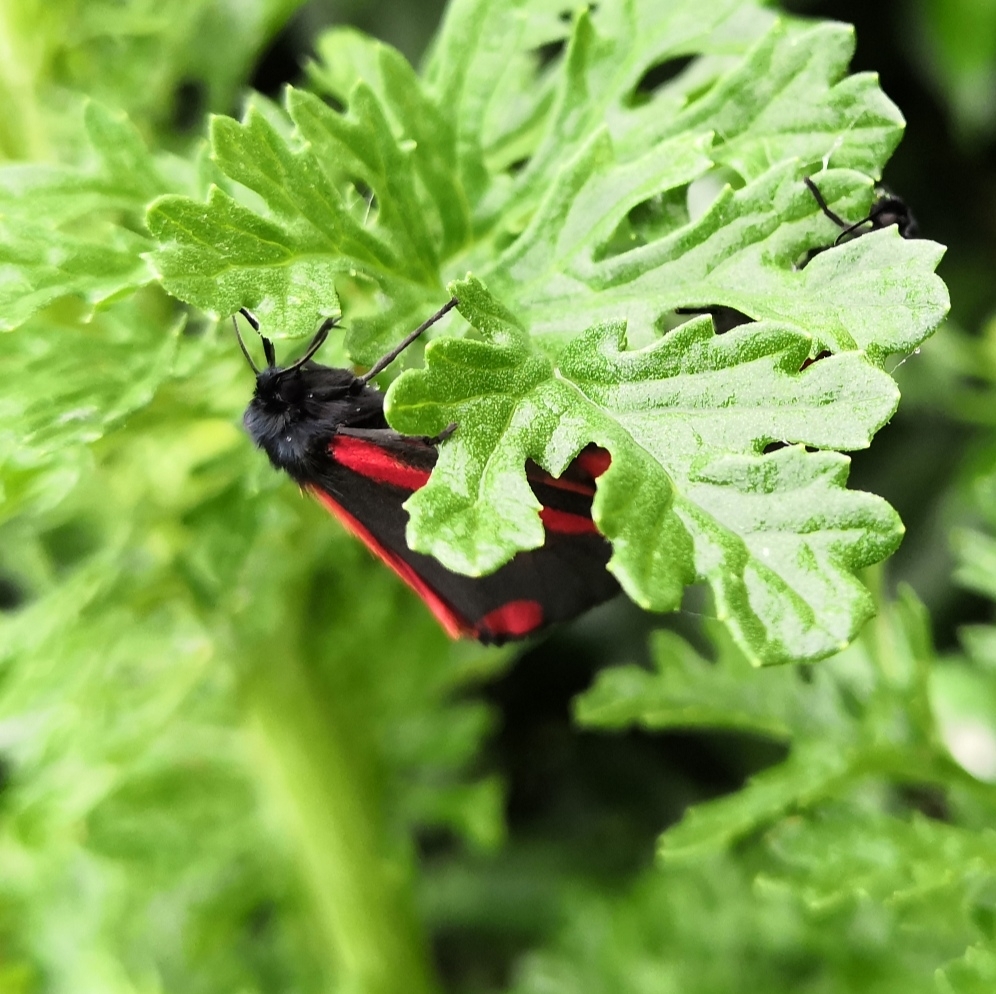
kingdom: Animalia
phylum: Arthropoda
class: Insecta
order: Lepidoptera
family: Erebidae
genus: Tyria
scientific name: Tyria jacobaeae
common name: Cinnabar
